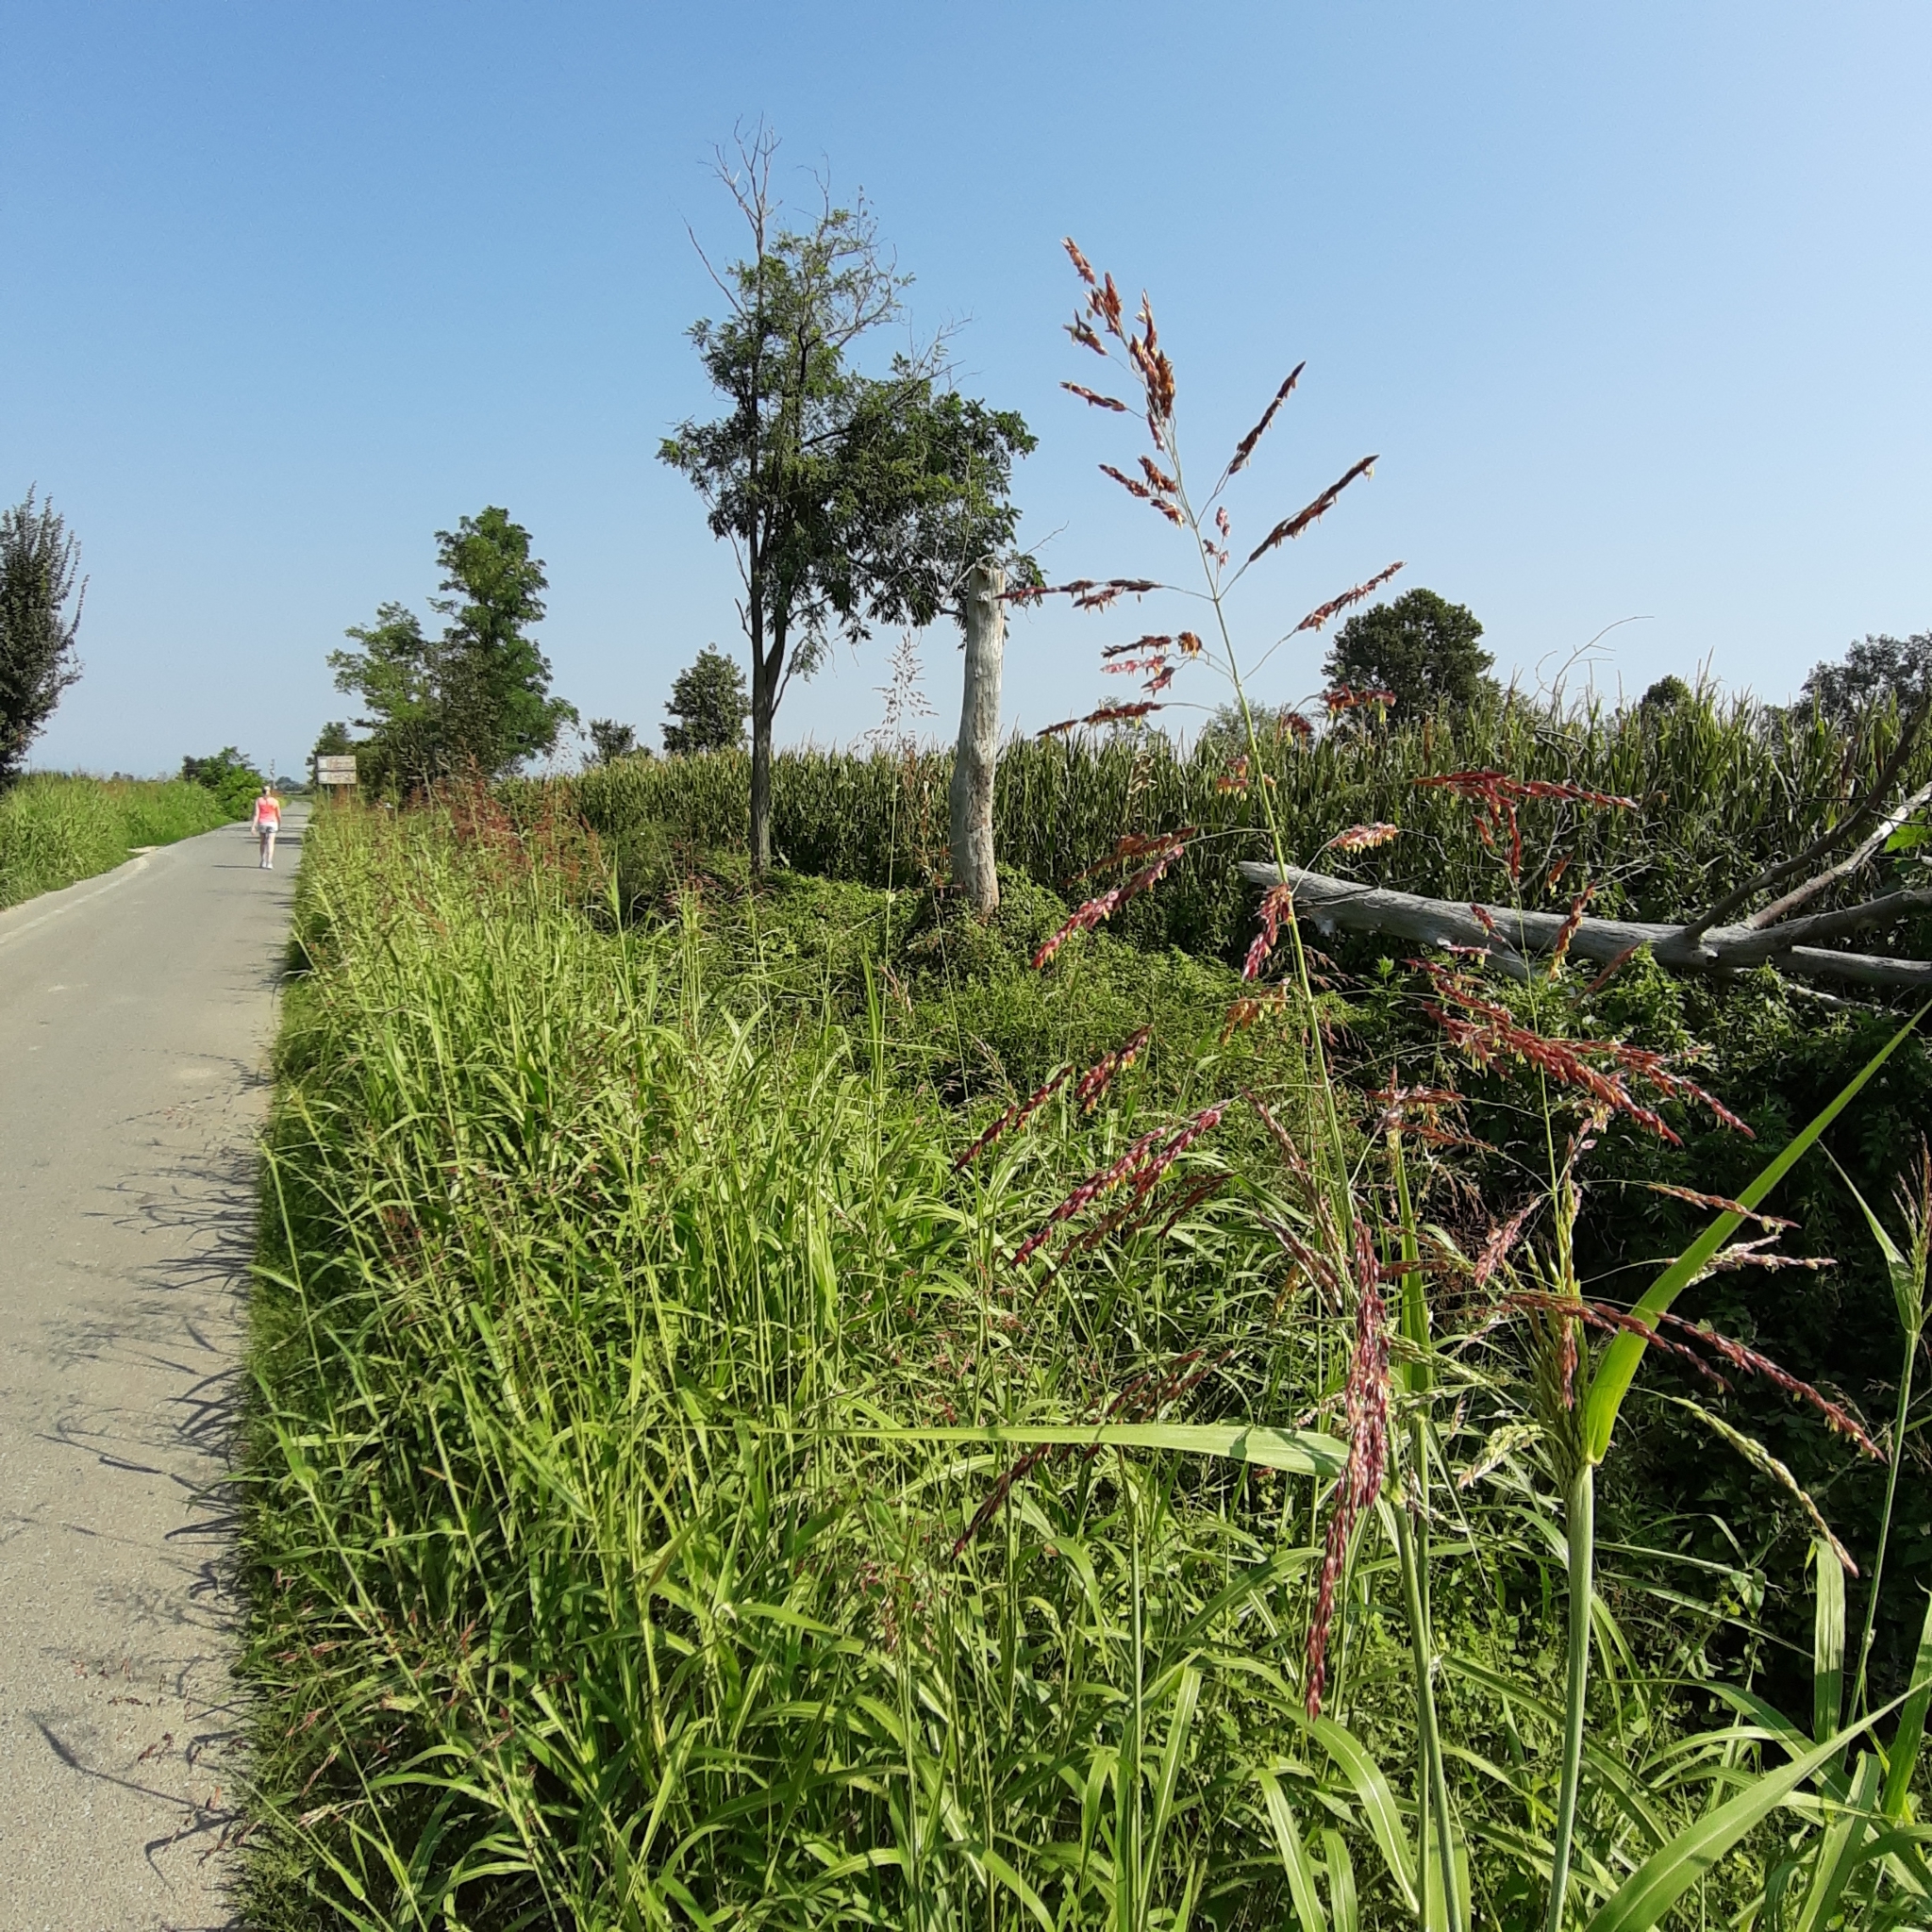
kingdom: Plantae
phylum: Tracheophyta
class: Liliopsida
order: Poales
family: Poaceae
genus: Sorghum
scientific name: Sorghum halepense
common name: Johnson-grass
